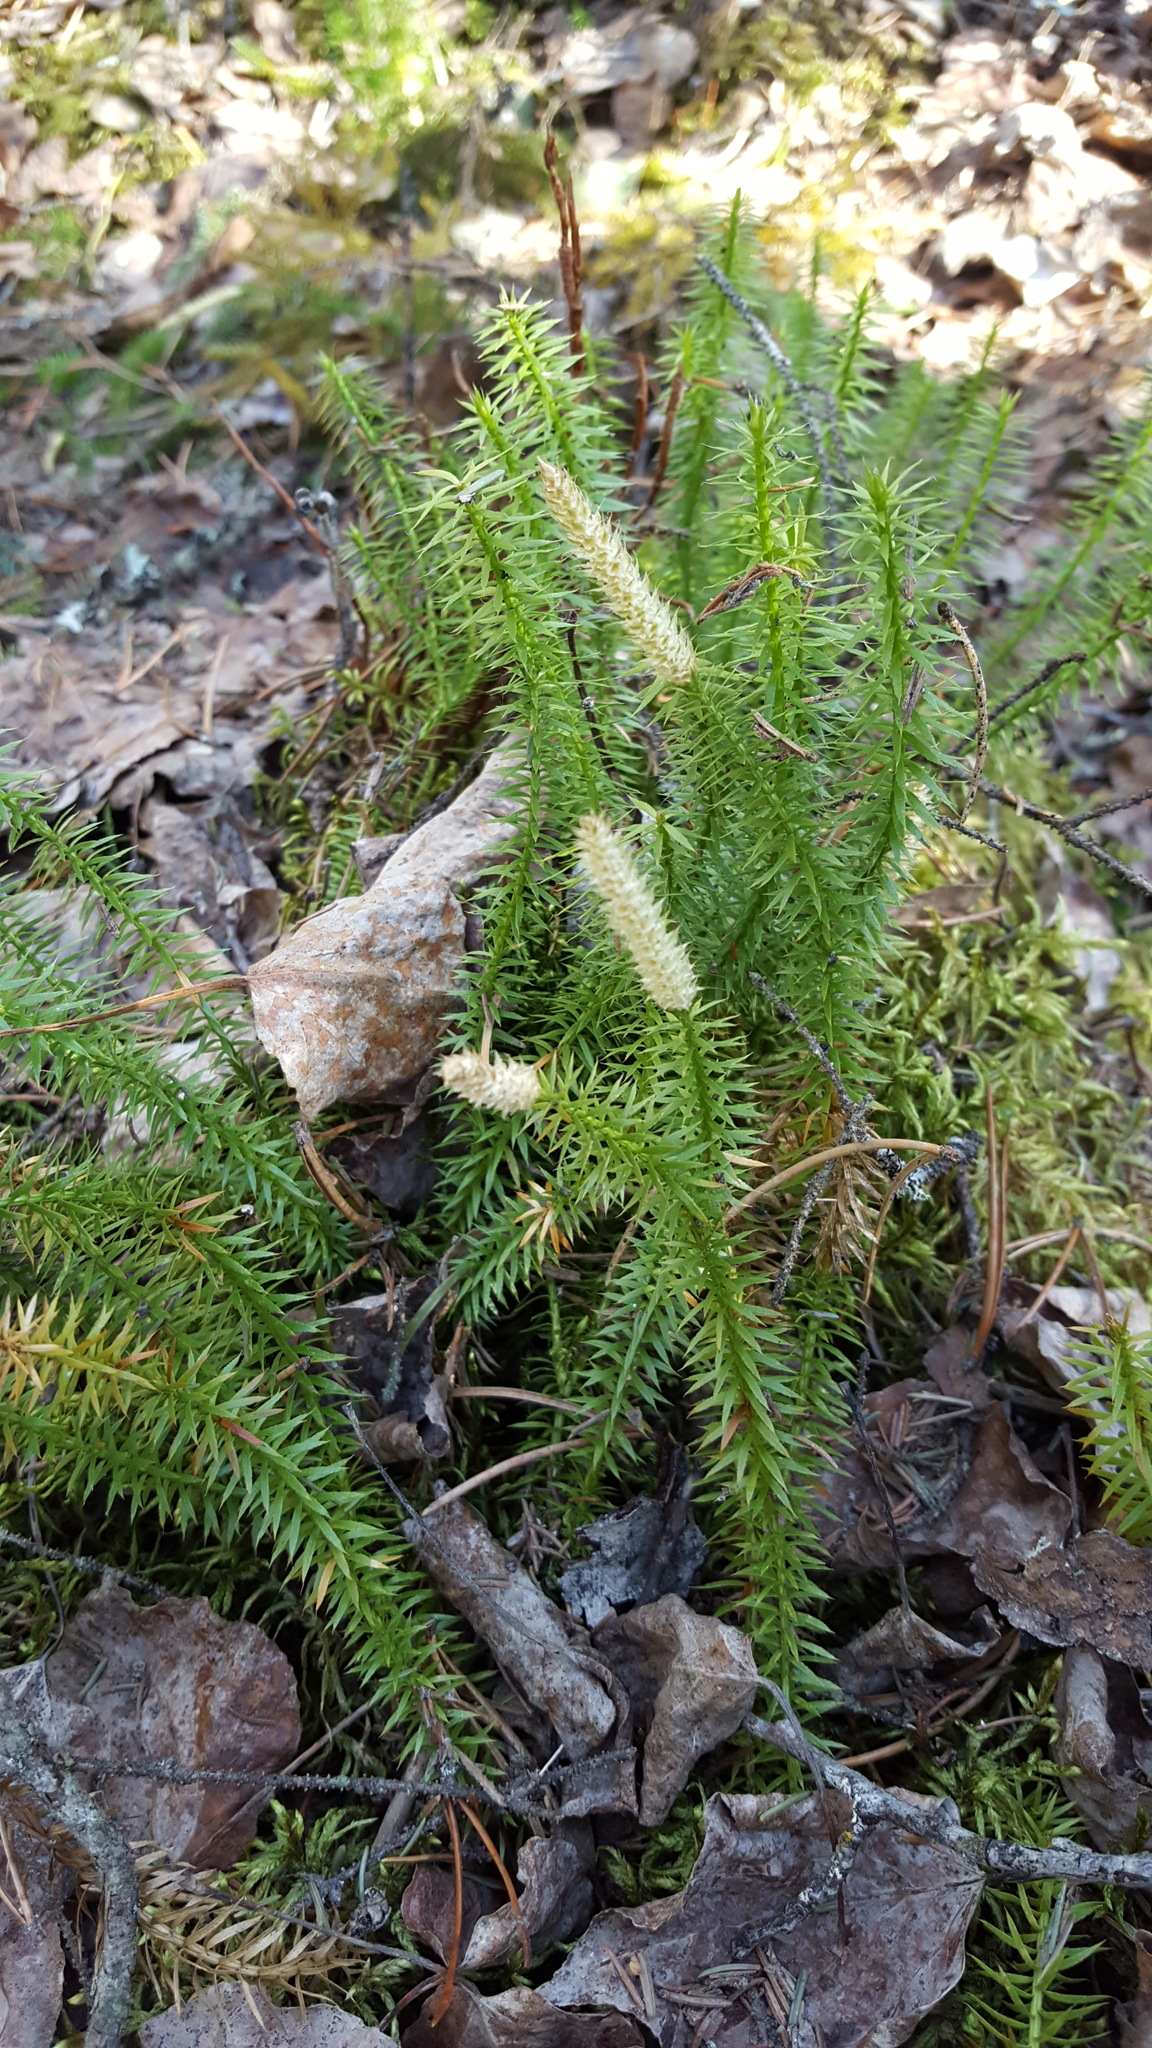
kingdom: Plantae
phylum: Tracheophyta
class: Lycopodiopsida
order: Lycopodiales
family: Lycopodiaceae
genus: Spinulum
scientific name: Spinulum annotinum
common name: Interrupted club-moss
